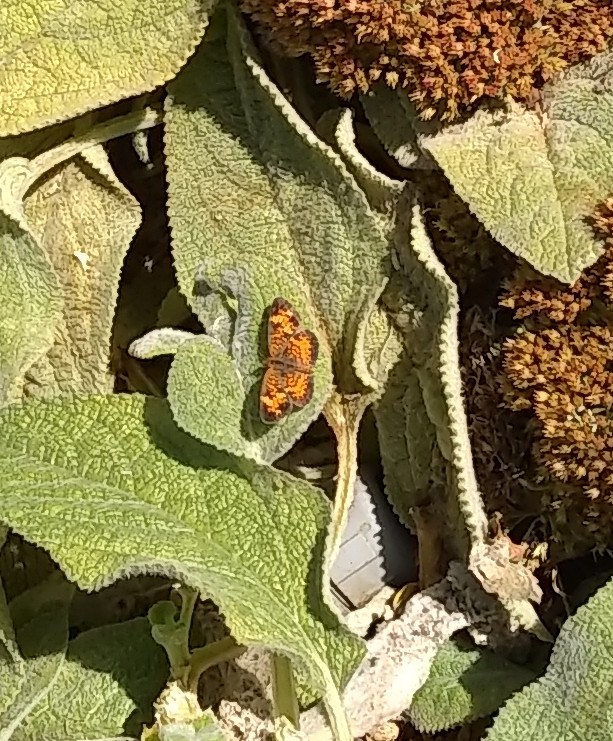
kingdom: Animalia
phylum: Arthropoda
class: Insecta
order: Lepidoptera
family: Nymphalidae
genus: Phyciodes
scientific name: Phyciodes tharos
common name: Pearl crescent
